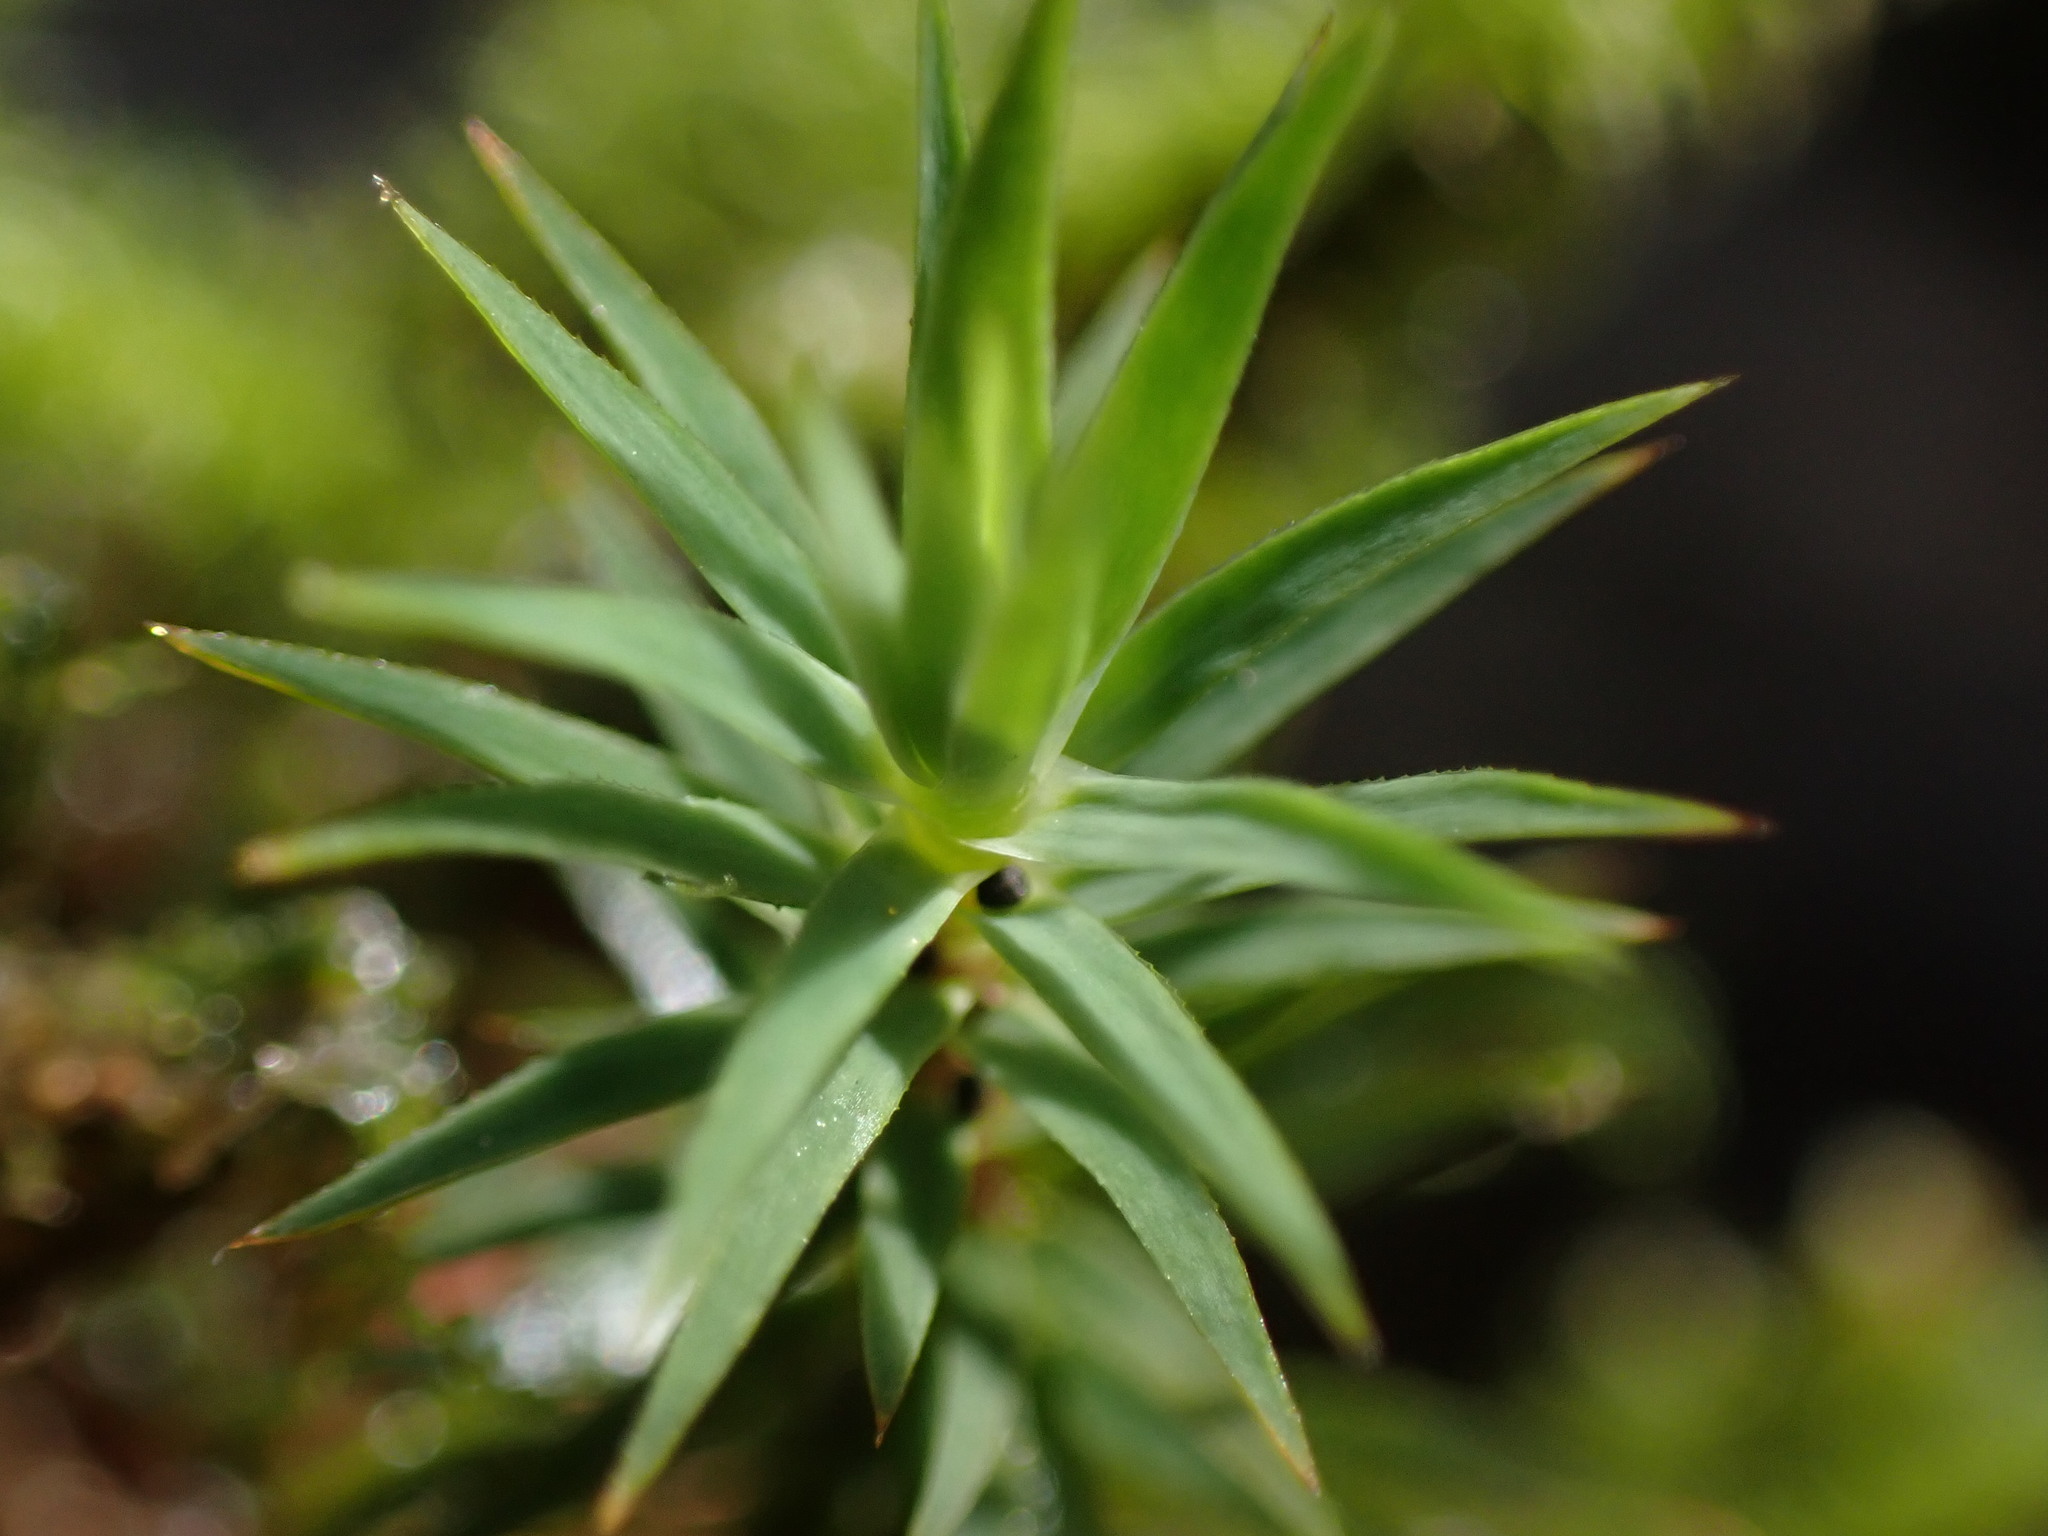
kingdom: Plantae
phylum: Bryophyta
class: Polytrichopsida
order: Polytrichales
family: Polytrichaceae
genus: Pogonatum
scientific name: Pogonatum urnigerum
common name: Urn hair moss
